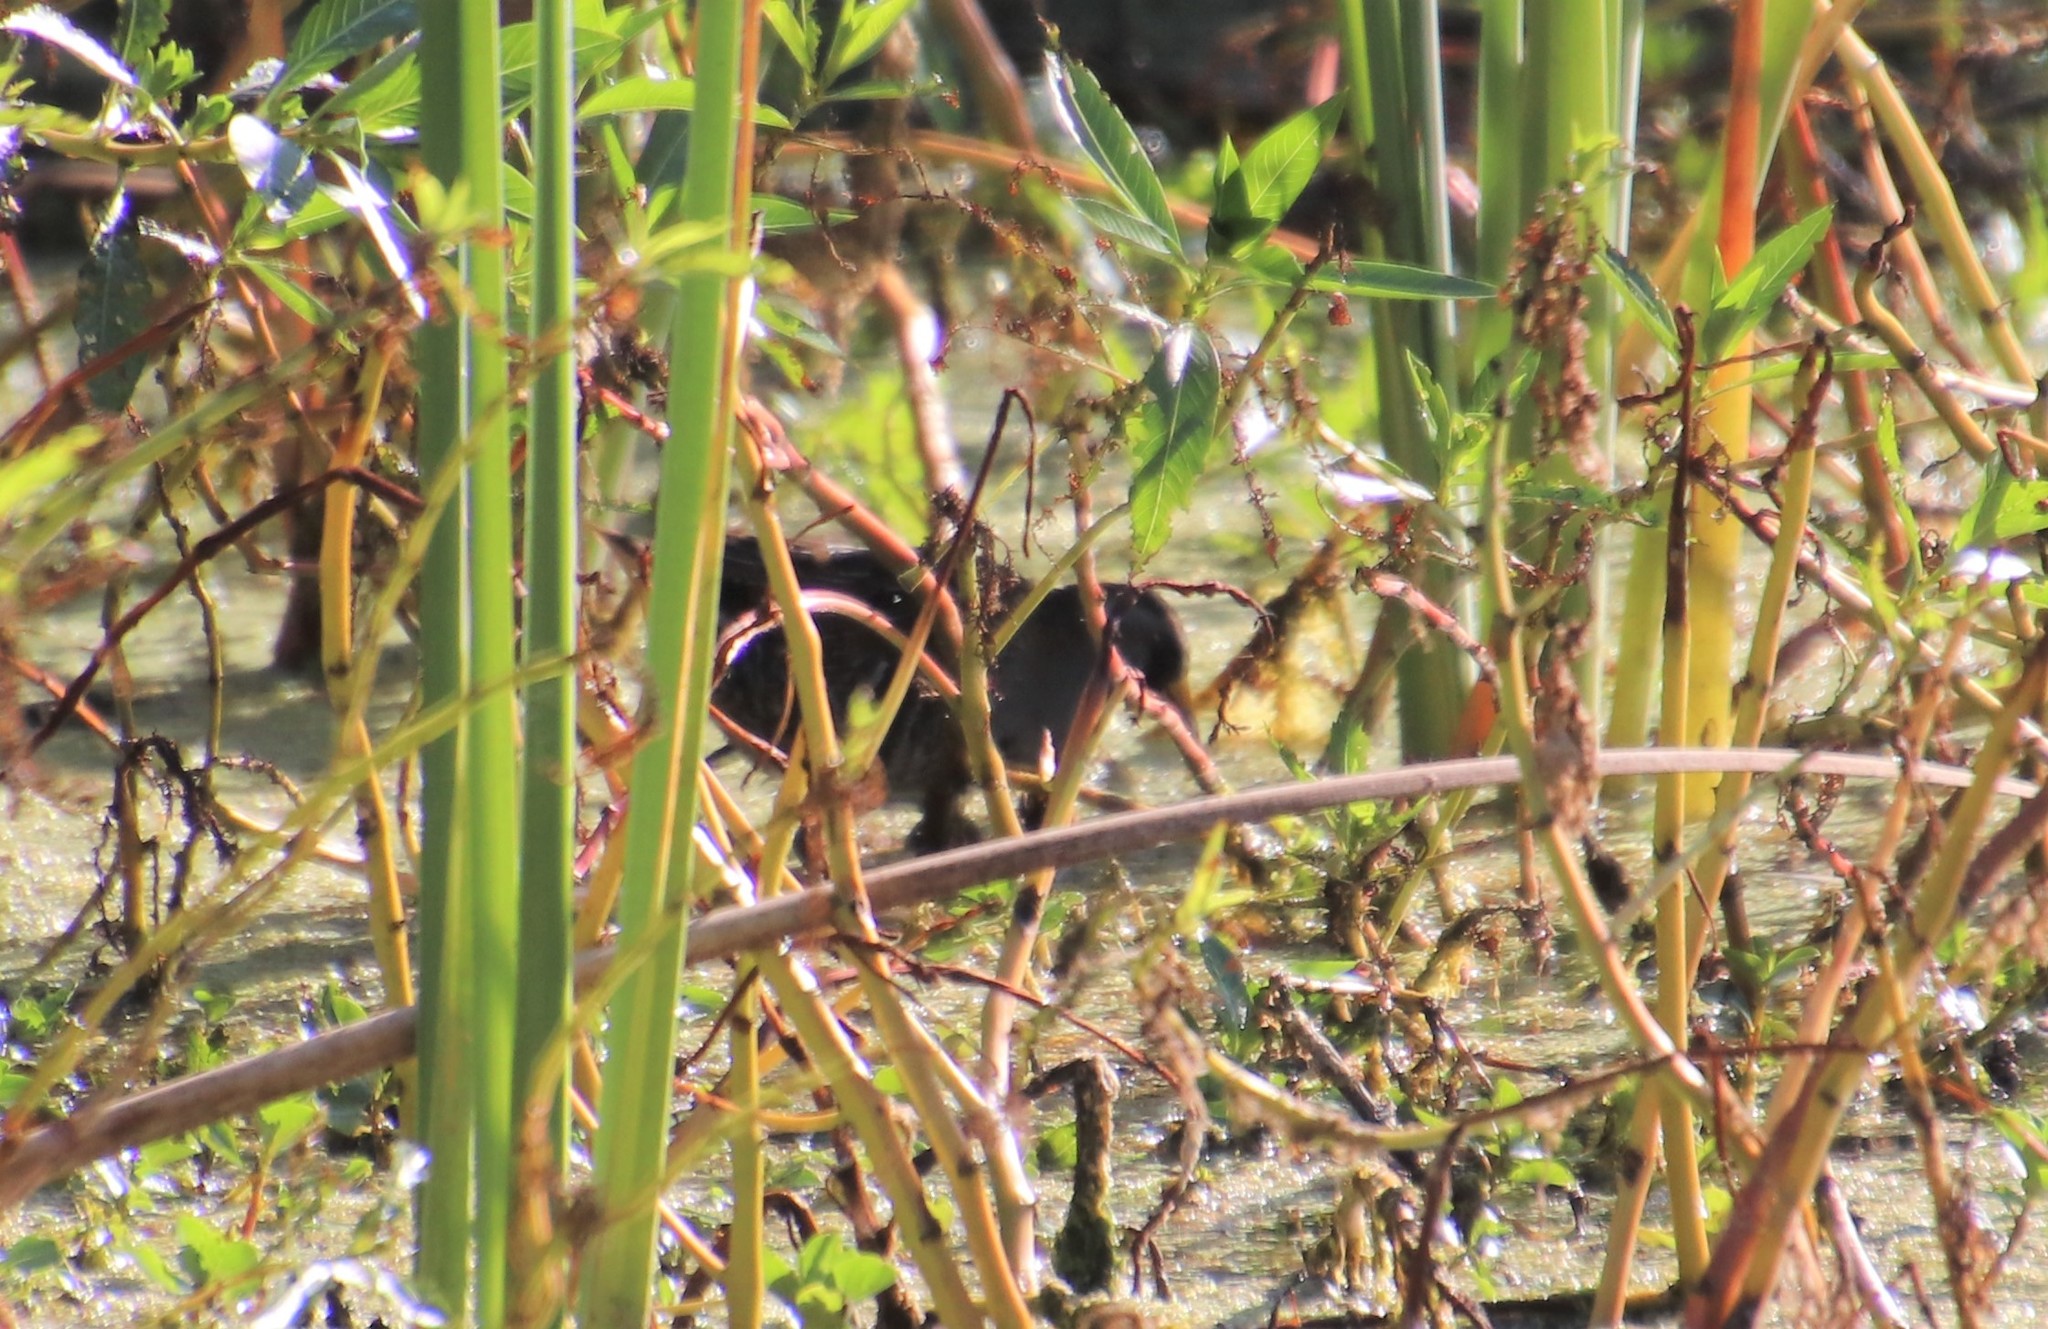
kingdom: Animalia
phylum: Chordata
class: Aves
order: Gruiformes
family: Rallidae
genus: Porzana
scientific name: Porzana carolina
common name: Sora
